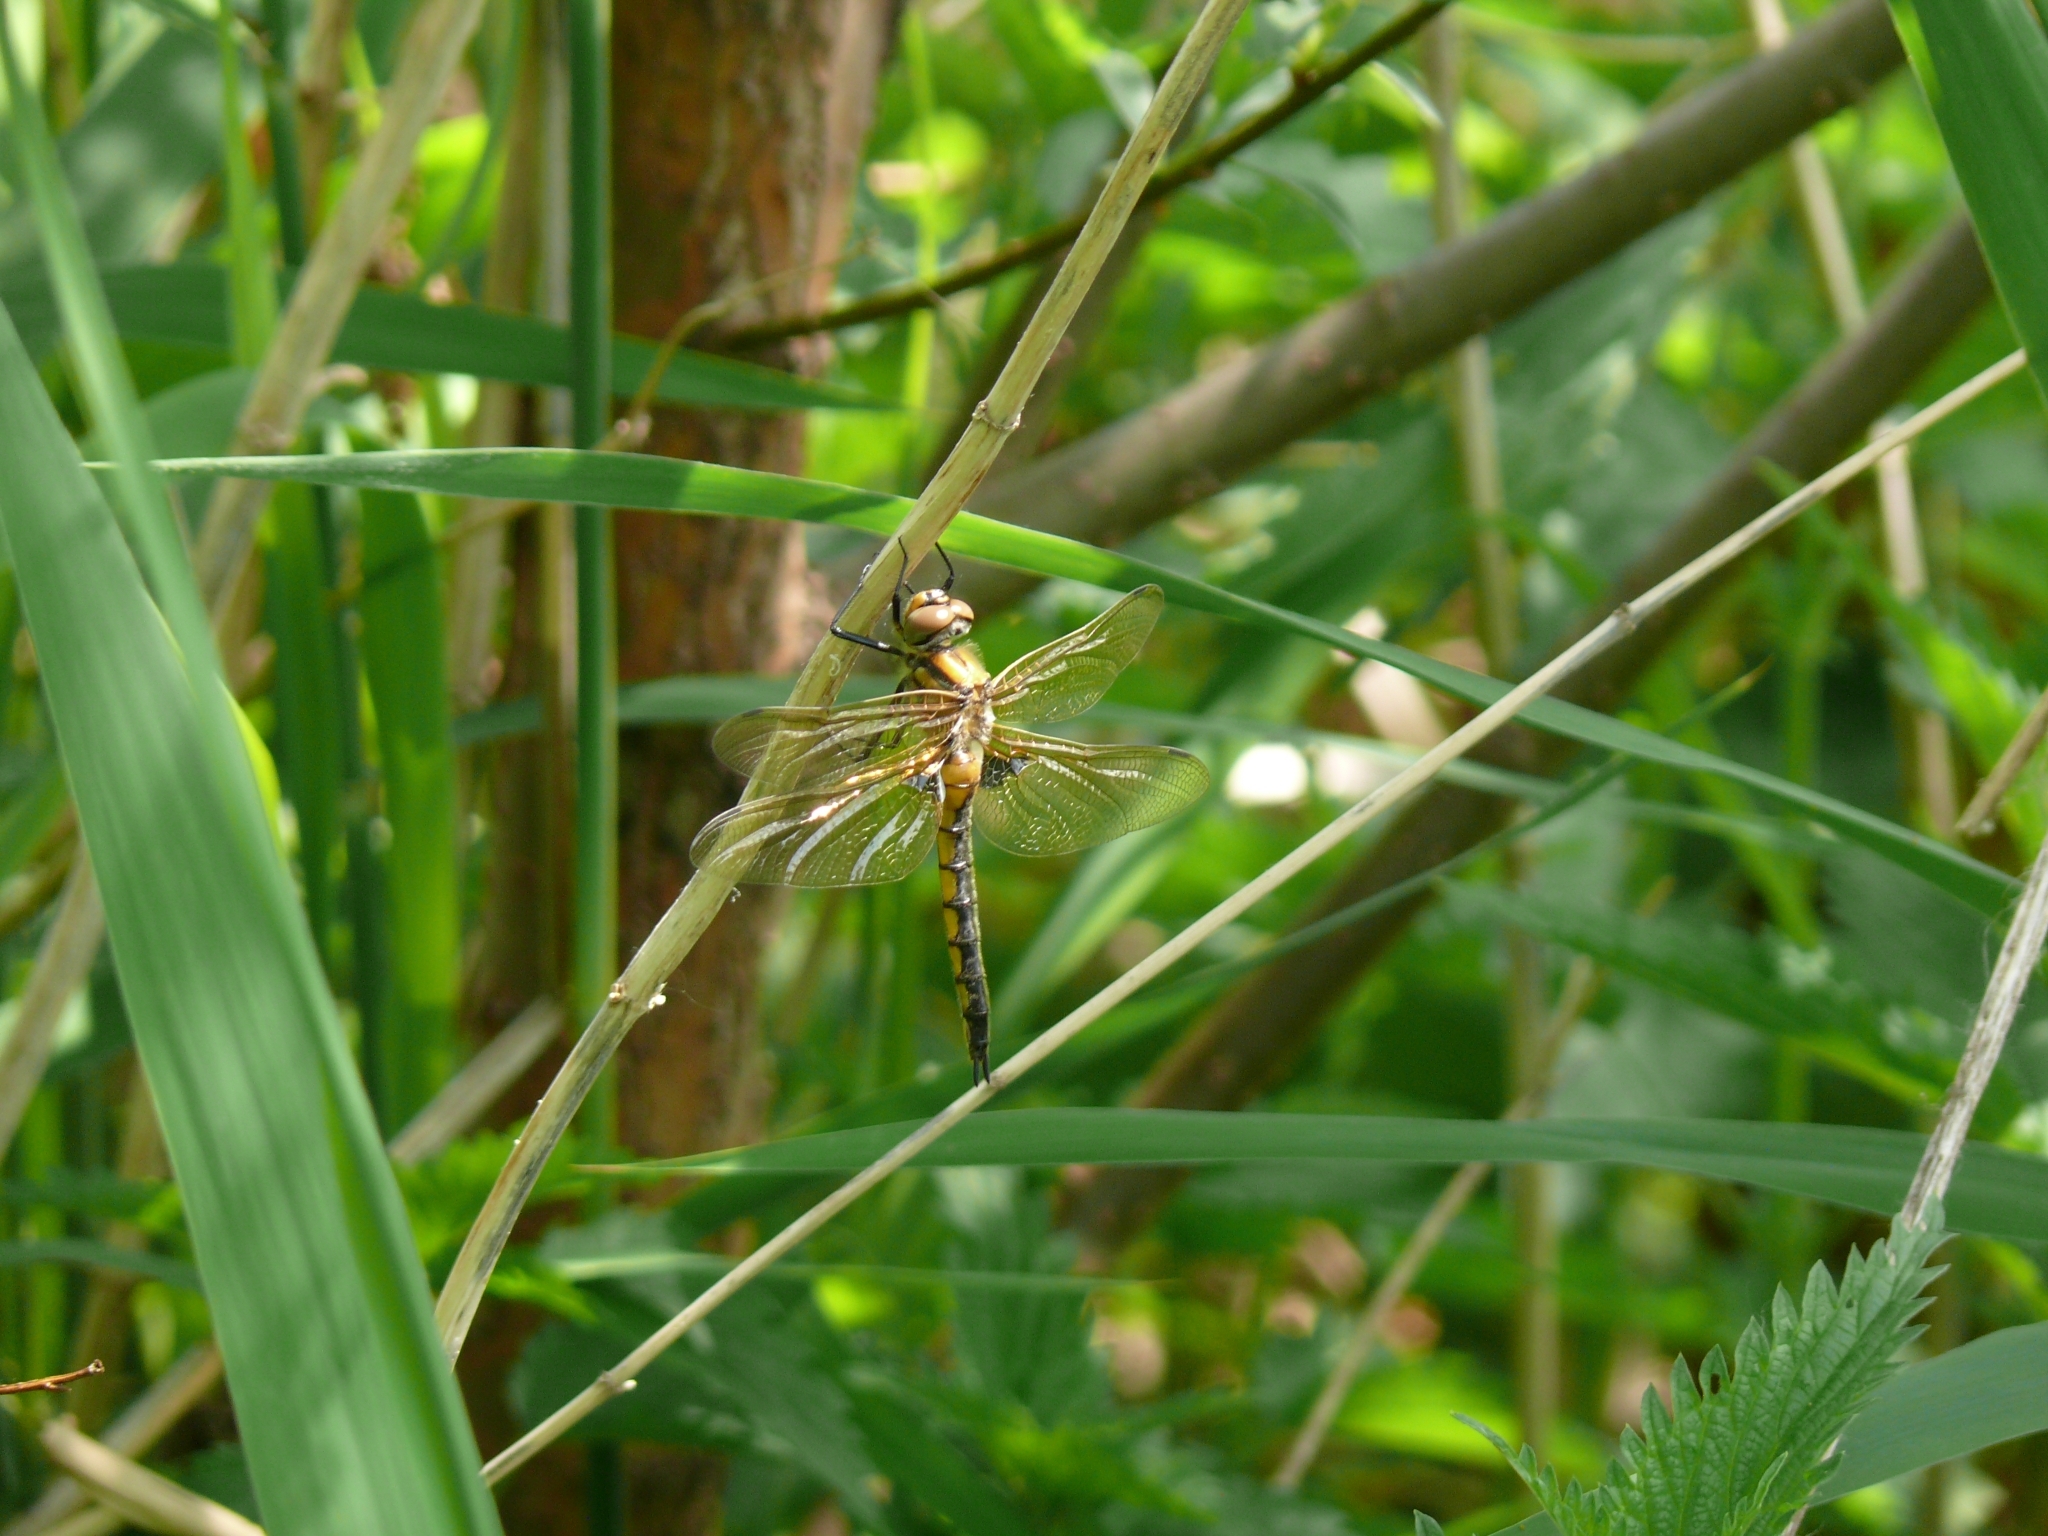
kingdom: Animalia
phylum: Arthropoda
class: Insecta
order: Odonata
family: Corduliidae
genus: Epitheca
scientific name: Epitheca bimaculata
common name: Eurasian baskettail
